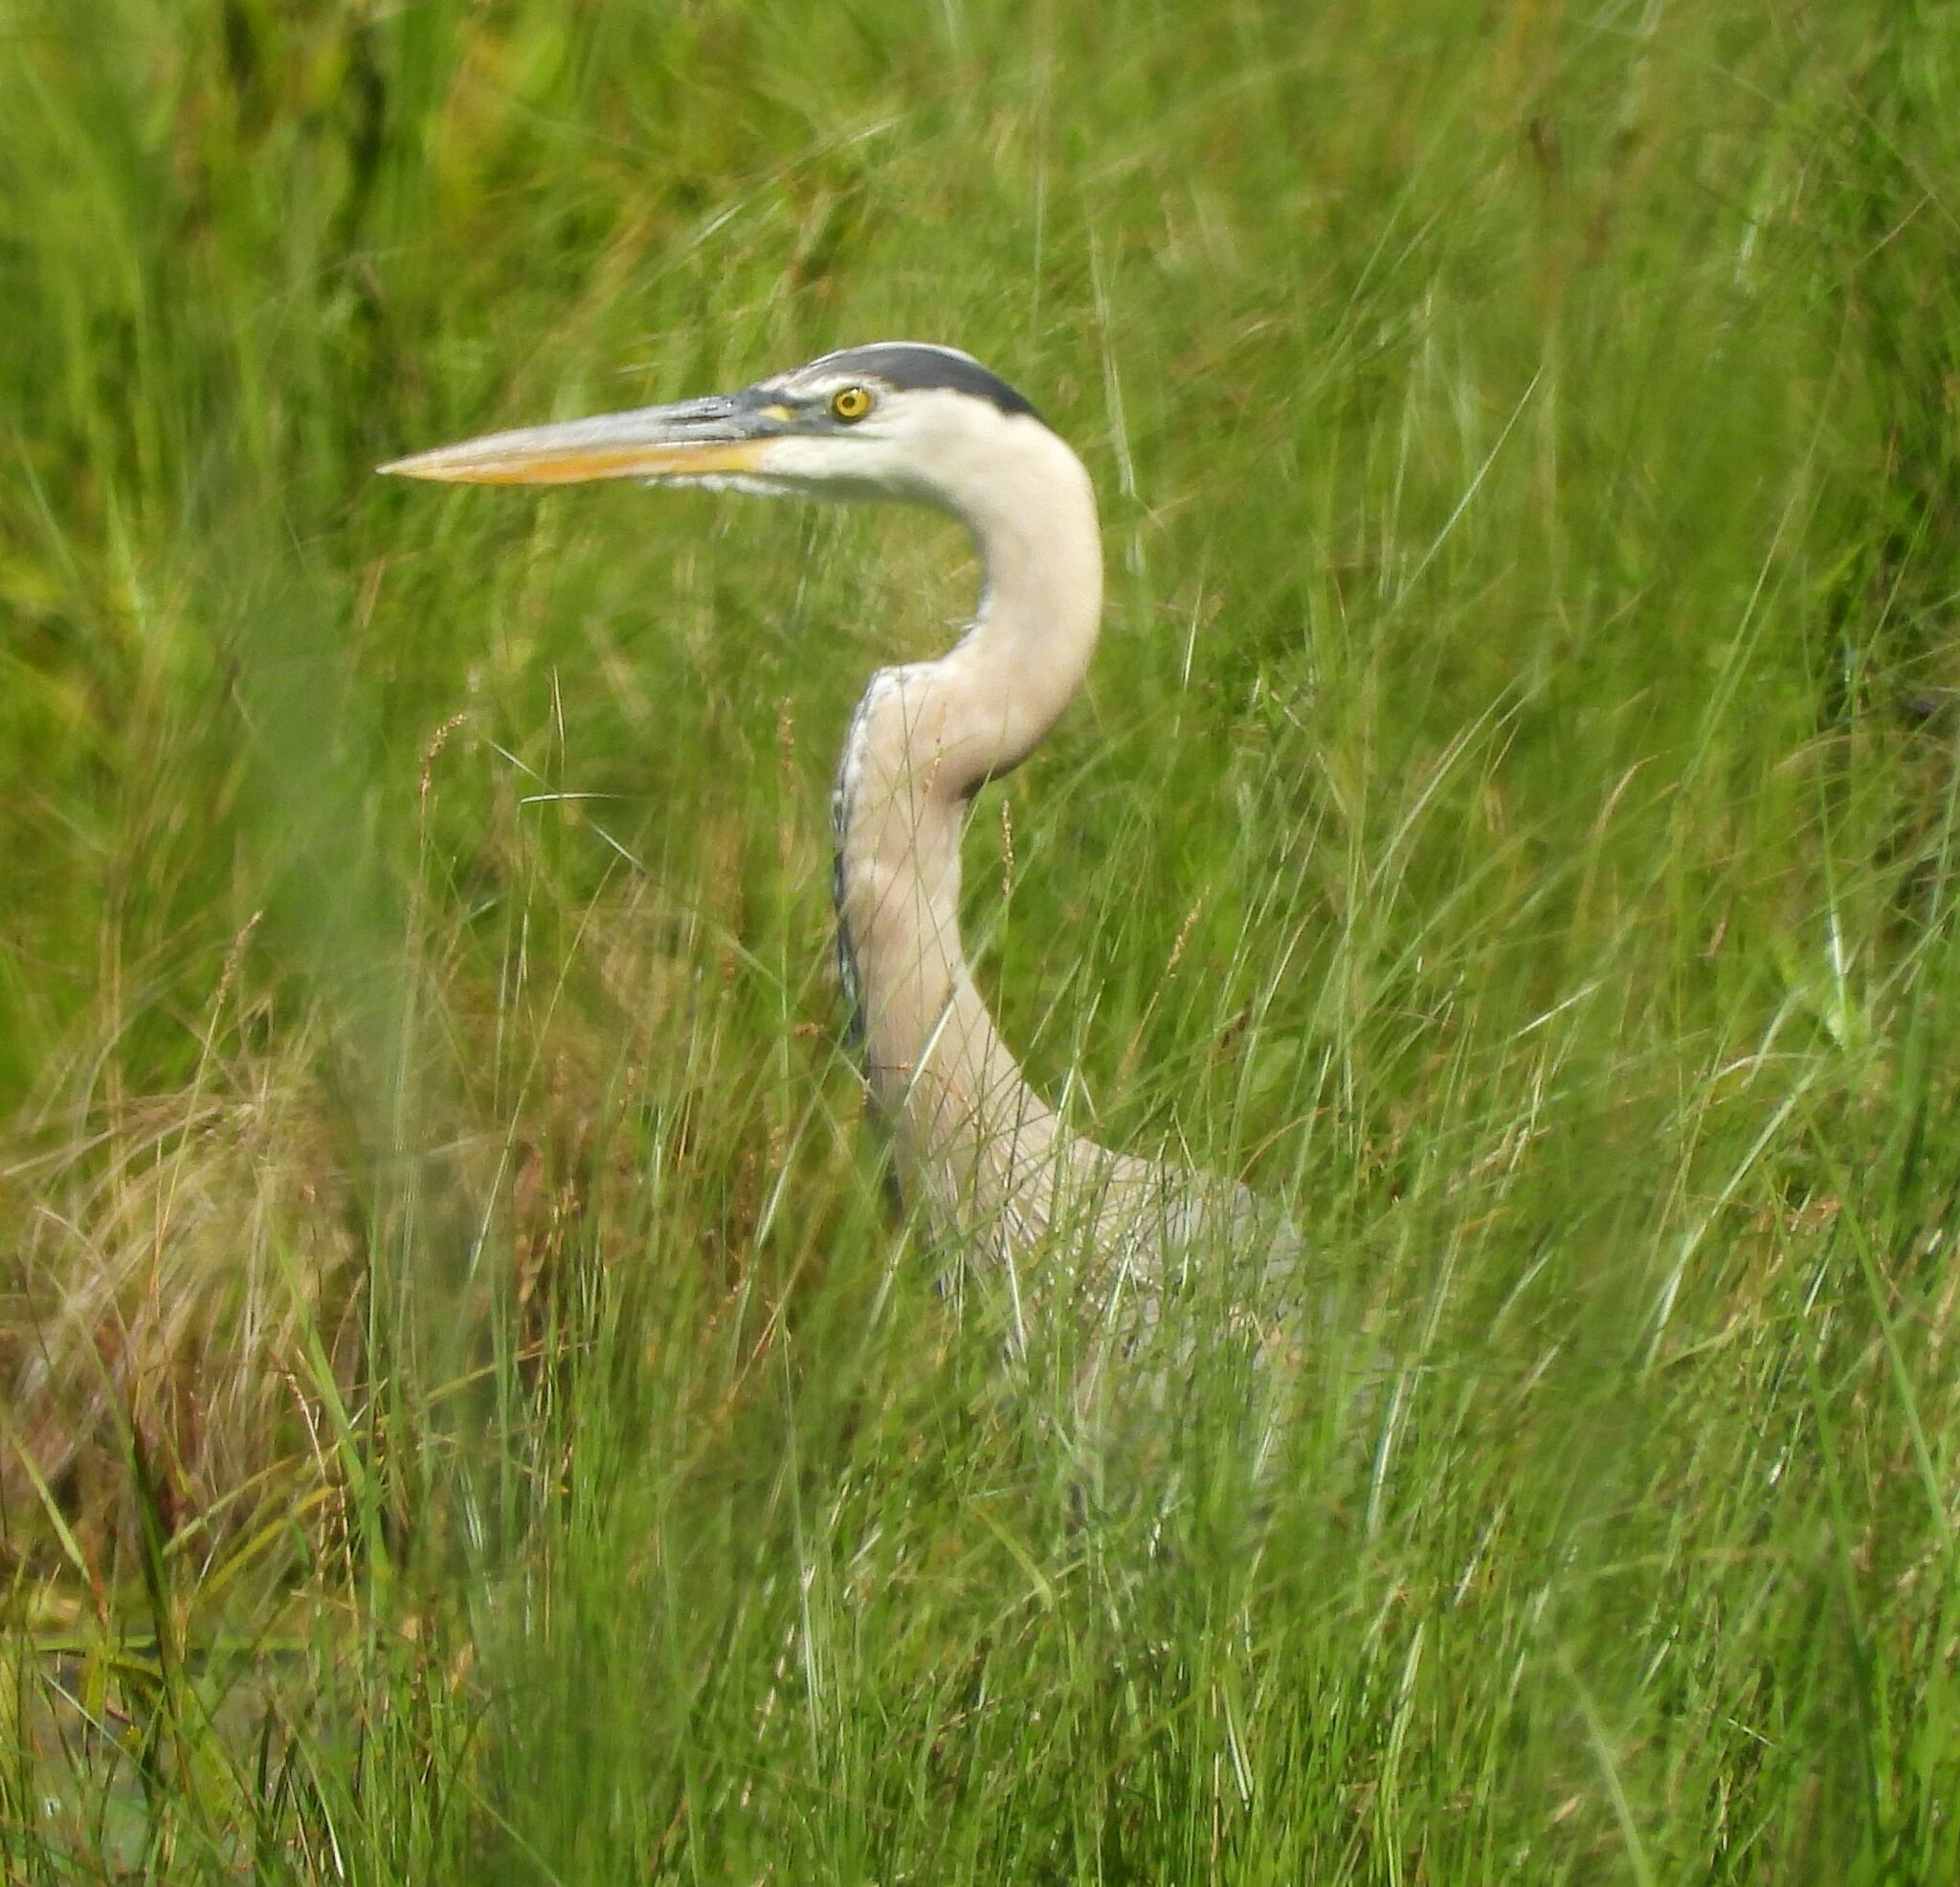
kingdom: Animalia
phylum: Chordata
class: Aves
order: Pelecaniformes
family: Ardeidae
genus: Ardea
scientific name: Ardea herodias
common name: Great blue heron
